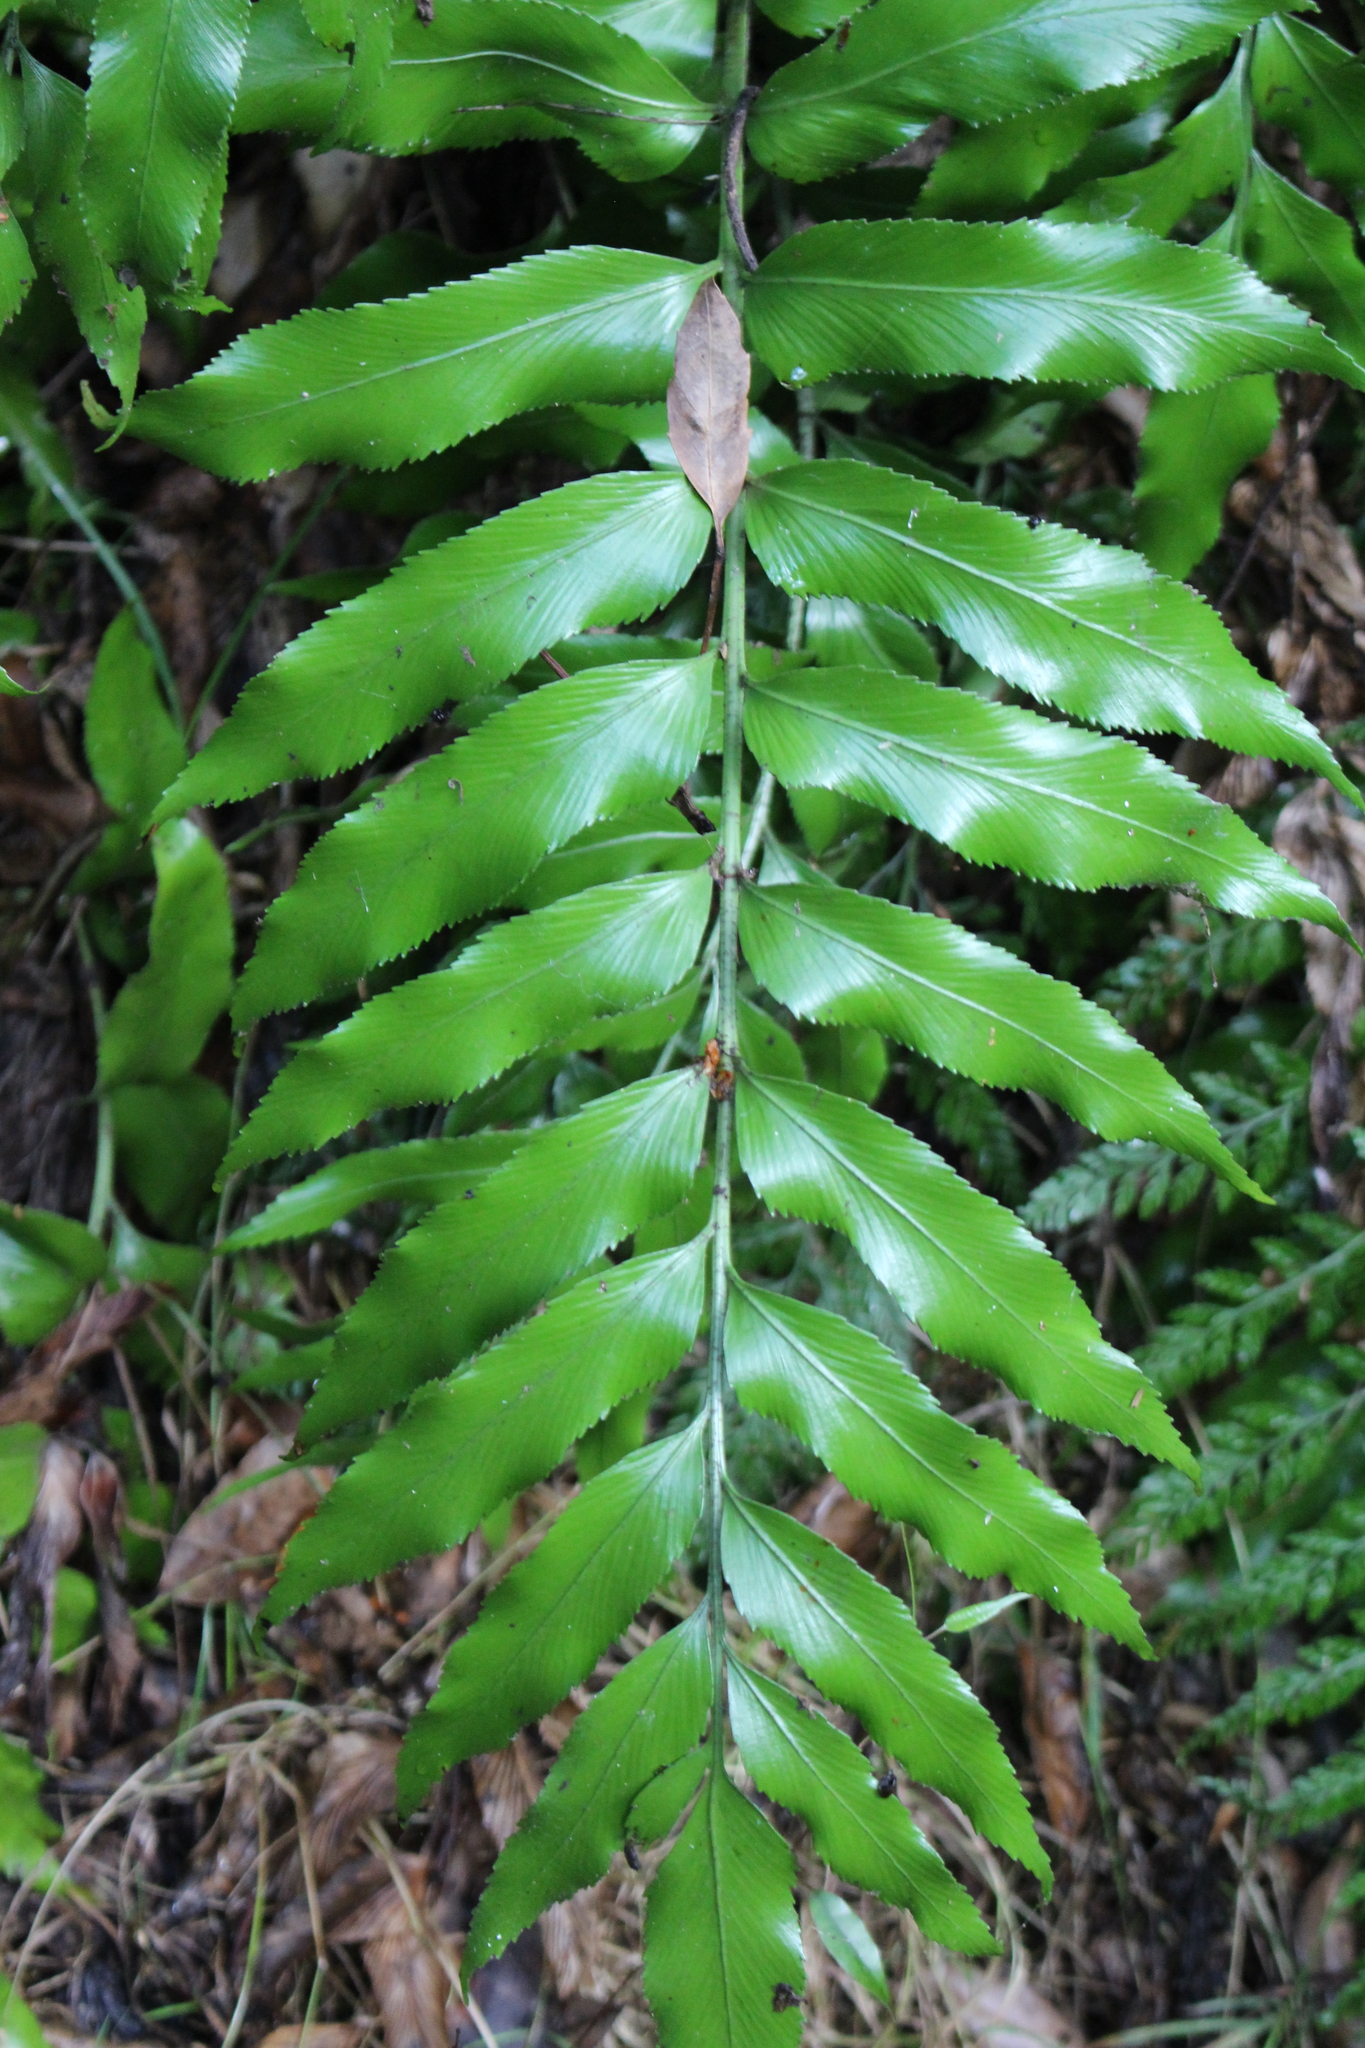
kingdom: Plantae
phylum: Tracheophyta
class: Polypodiopsida
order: Polypodiales
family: Aspleniaceae
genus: Asplenium
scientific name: Asplenium oblongifolium
